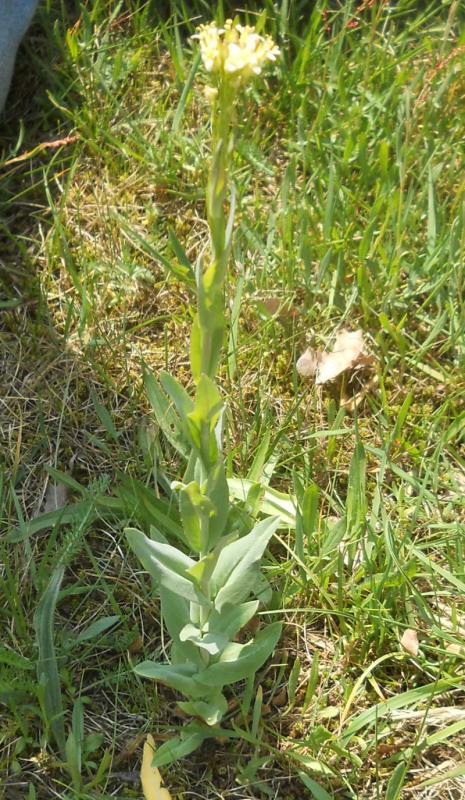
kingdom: Plantae
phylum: Tracheophyta
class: Magnoliopsida
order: Brassicales
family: Brassicaceae
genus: Turritis
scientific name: Turritis glabra
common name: Tower rockcress
